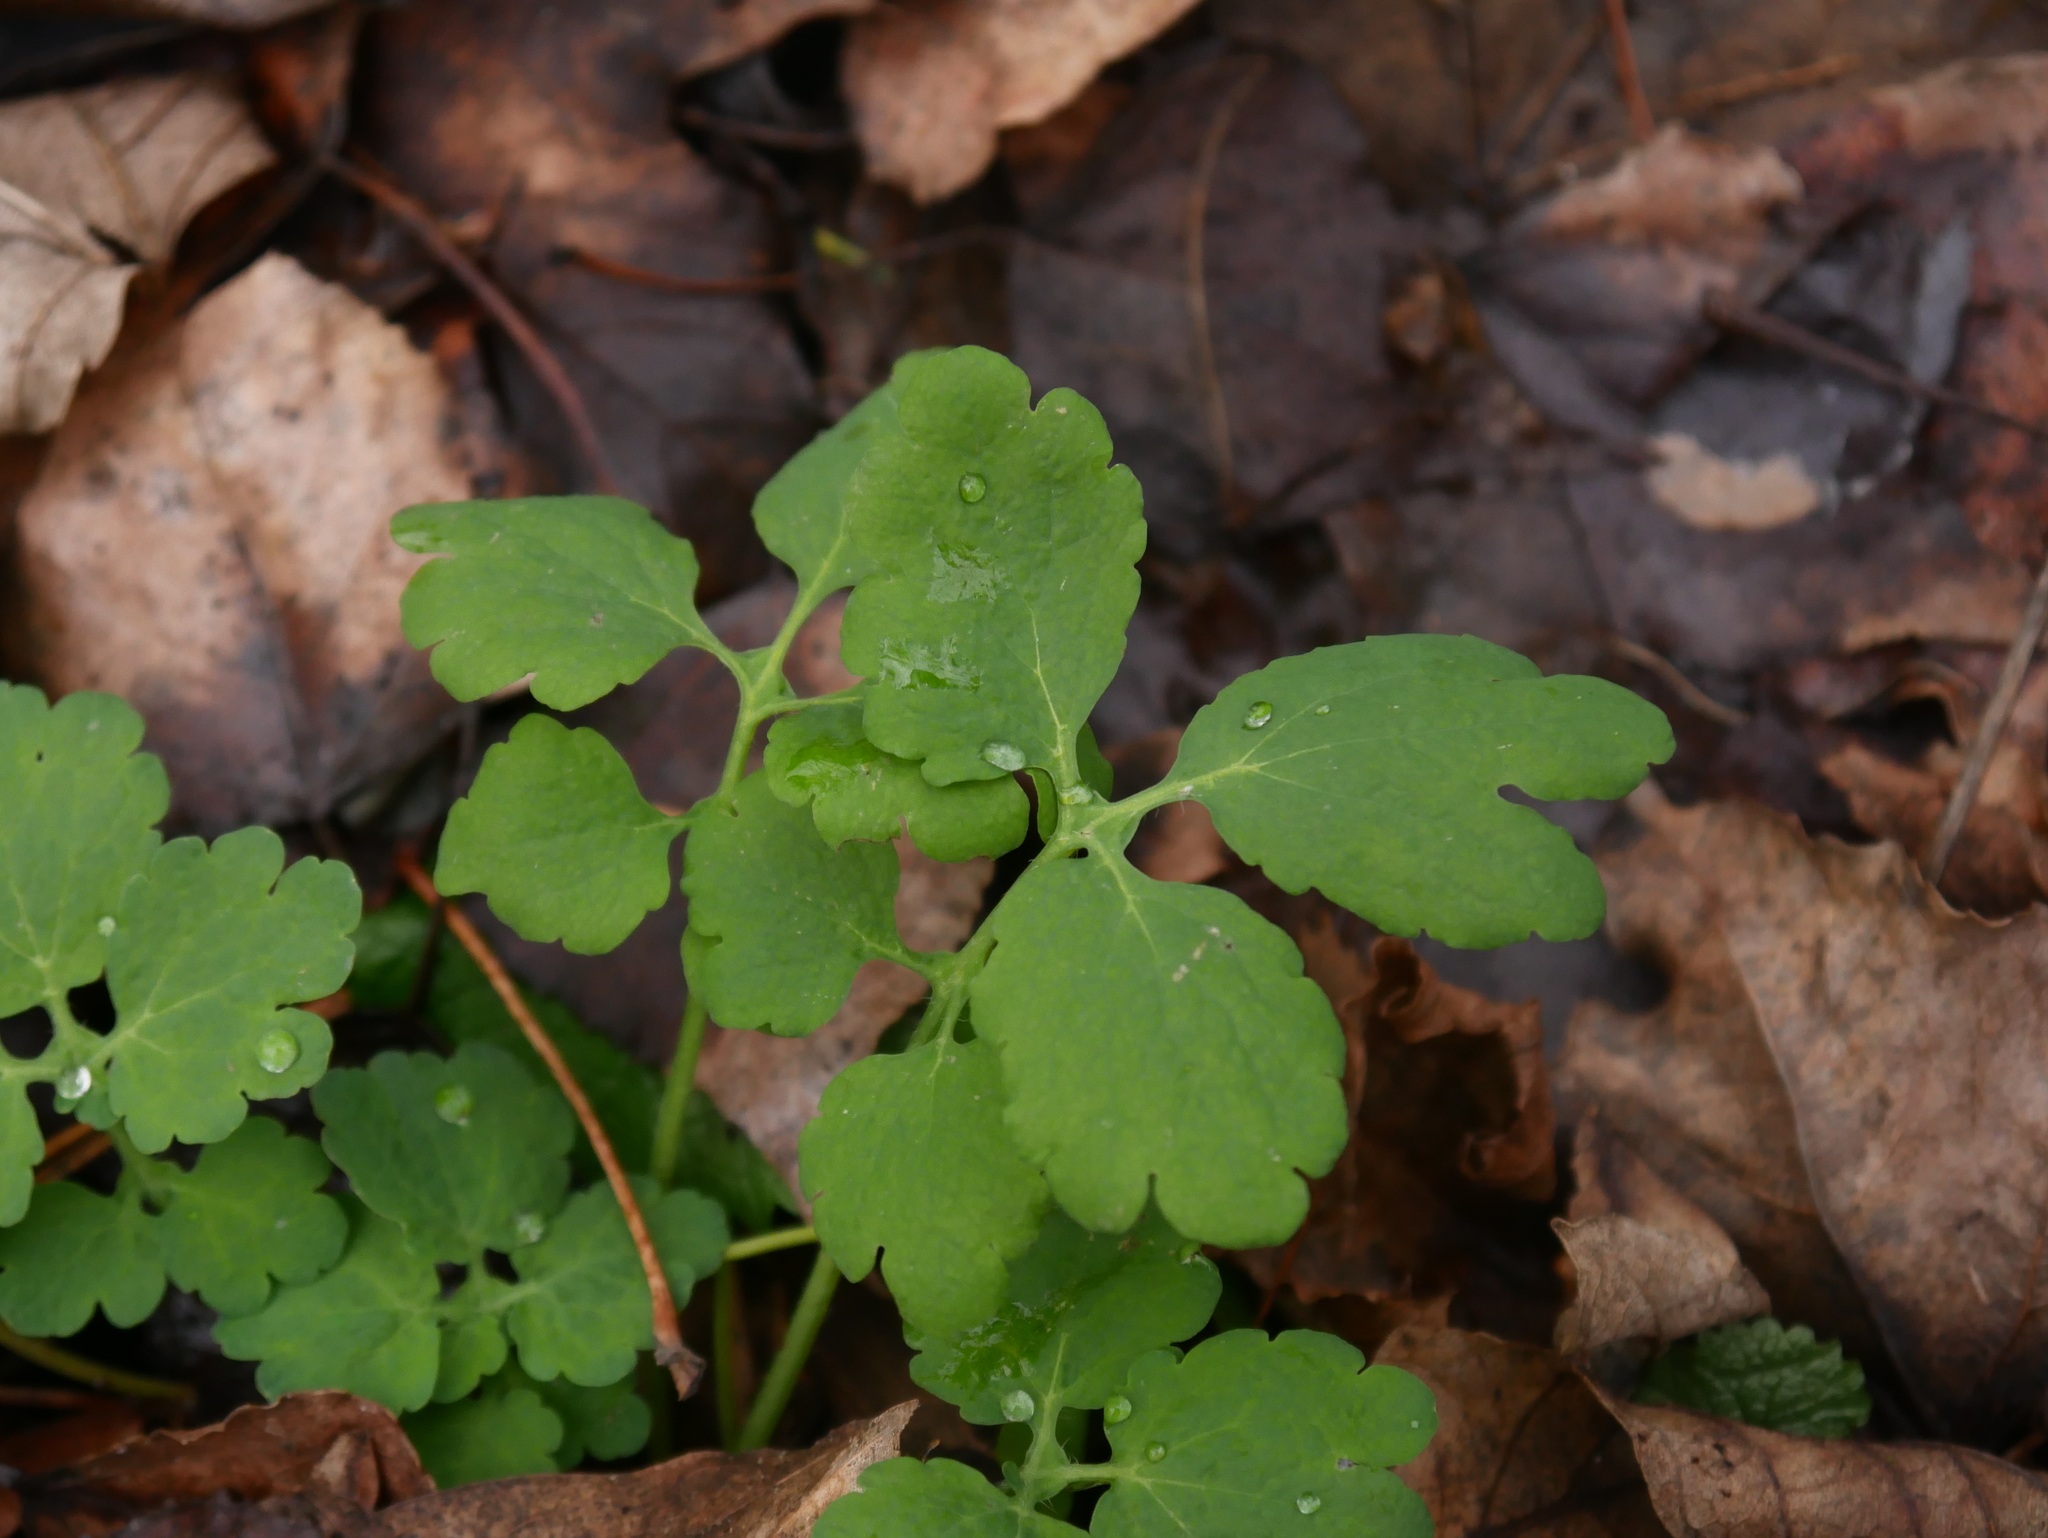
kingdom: Plantae
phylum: Tracheophyta
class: Magnoliopsida
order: Ranunculales
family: Papaveraceae
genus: Chelidonium
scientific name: Chelidonium majus
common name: Greater celandine
